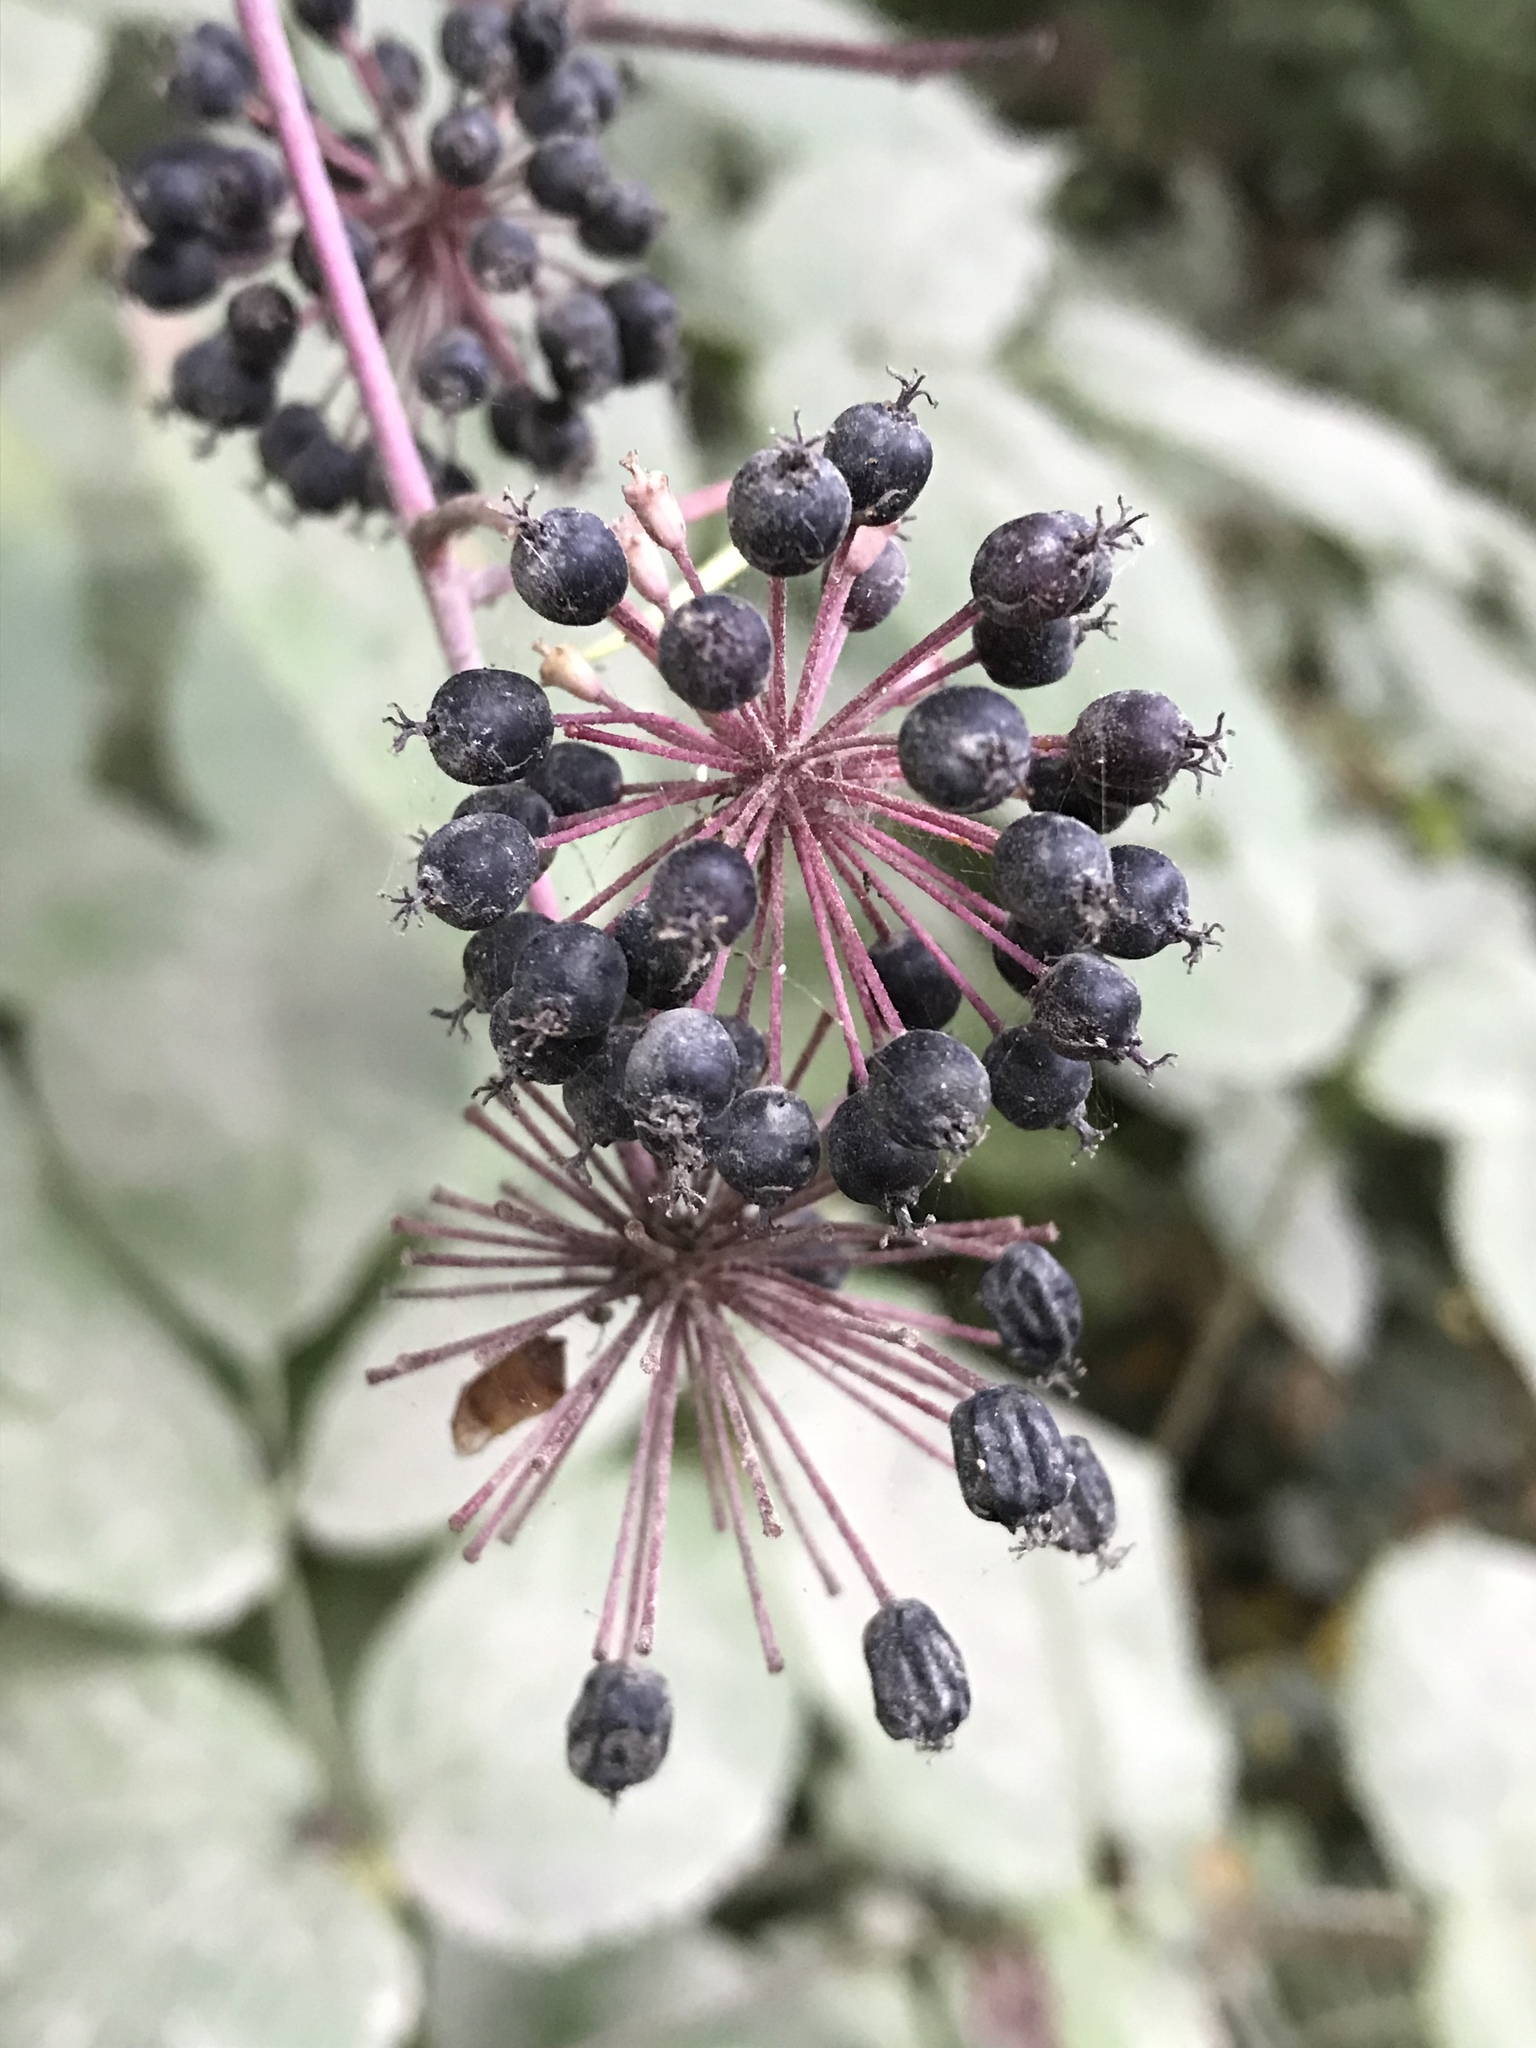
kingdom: Plantae
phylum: Tracheophyta
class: Magnoliopsida
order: Apiales
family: Araliaceae
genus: Aralia
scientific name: Aralia californica
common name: California-ginseng
